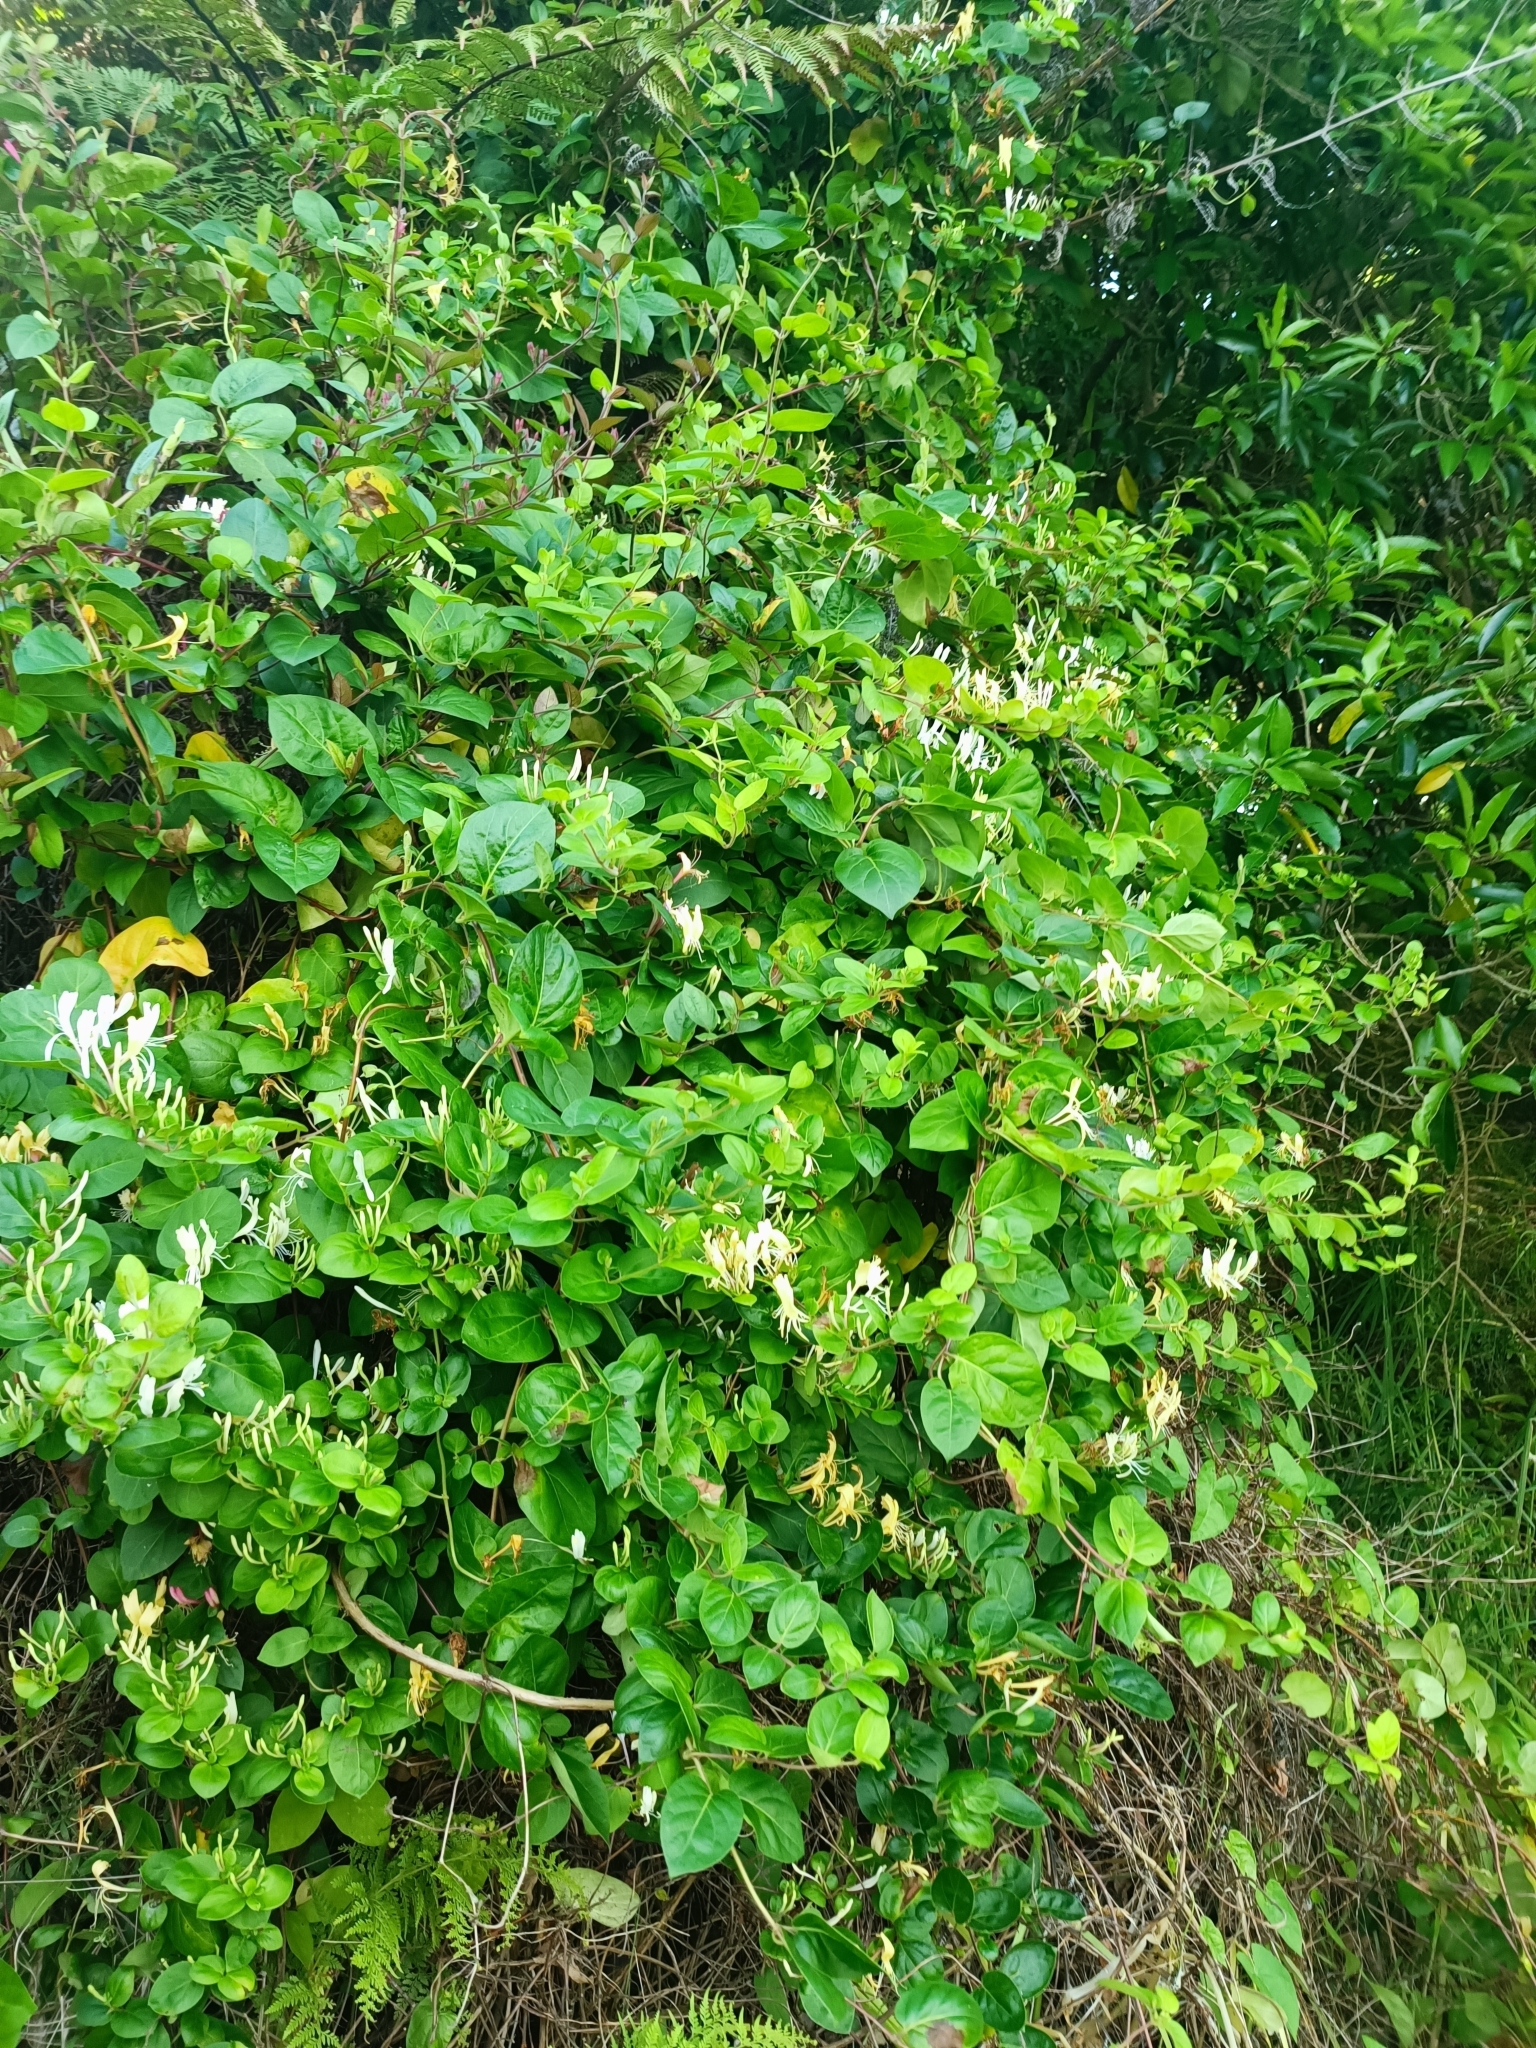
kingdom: Plantae
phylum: Tracheophyta
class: Magnoliopsida
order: Dipsacales
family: Caprifoliaceae
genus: Lonicera
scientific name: Lonicera japonica
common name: Japanese honeysuckle
